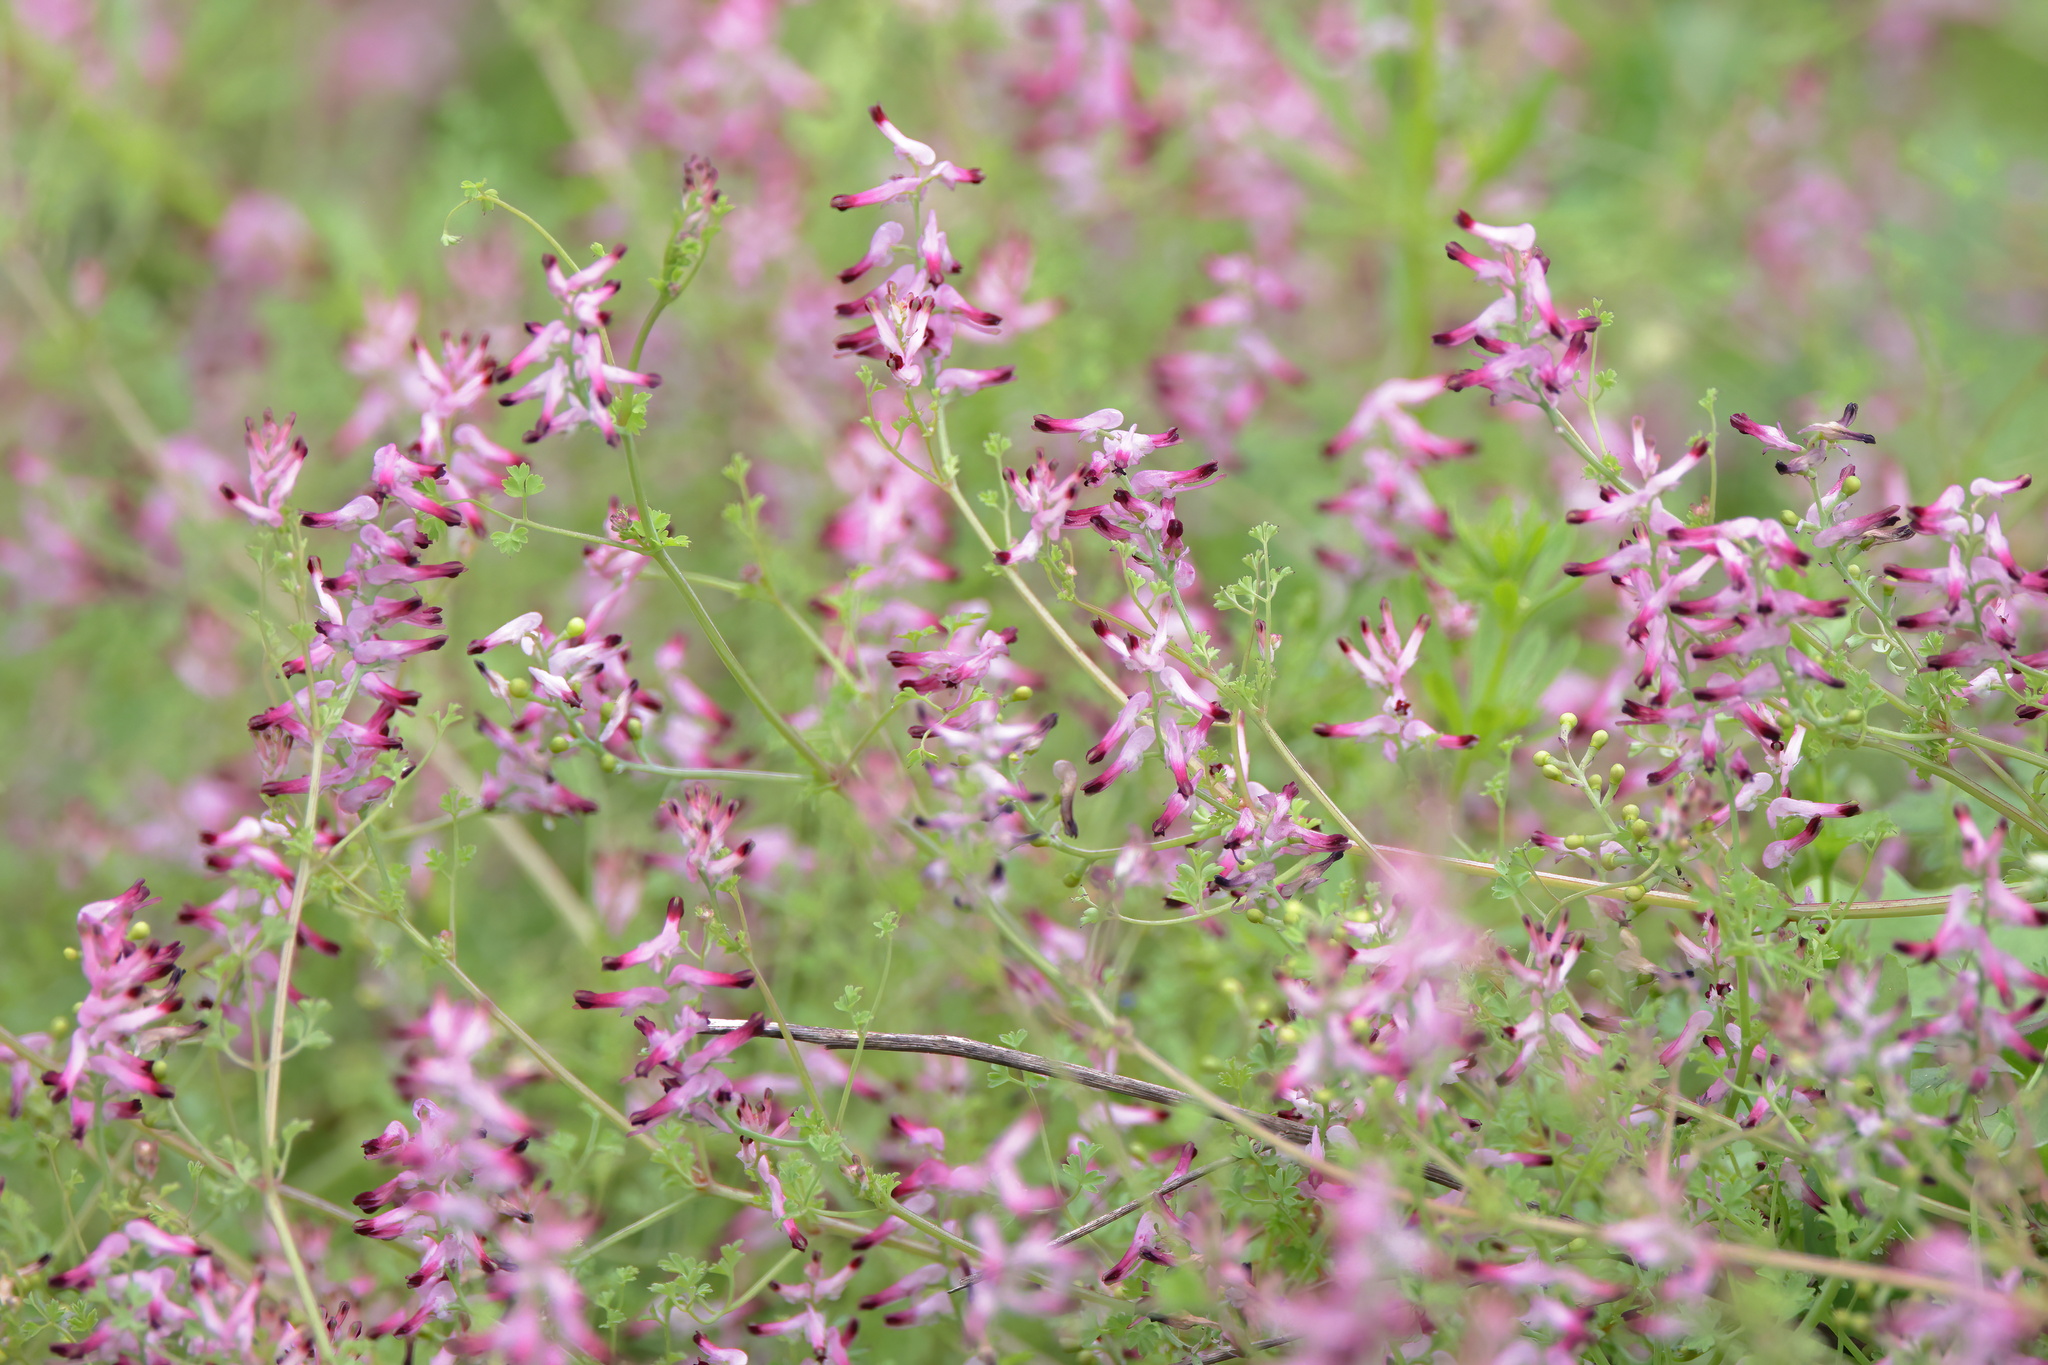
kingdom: Plantae
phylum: Tracheophyta
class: Magnoliopsida
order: Ranunculales
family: Papaveraceae
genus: Fumaria
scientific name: Fumaria muralis
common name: Common ramping-fumitory
